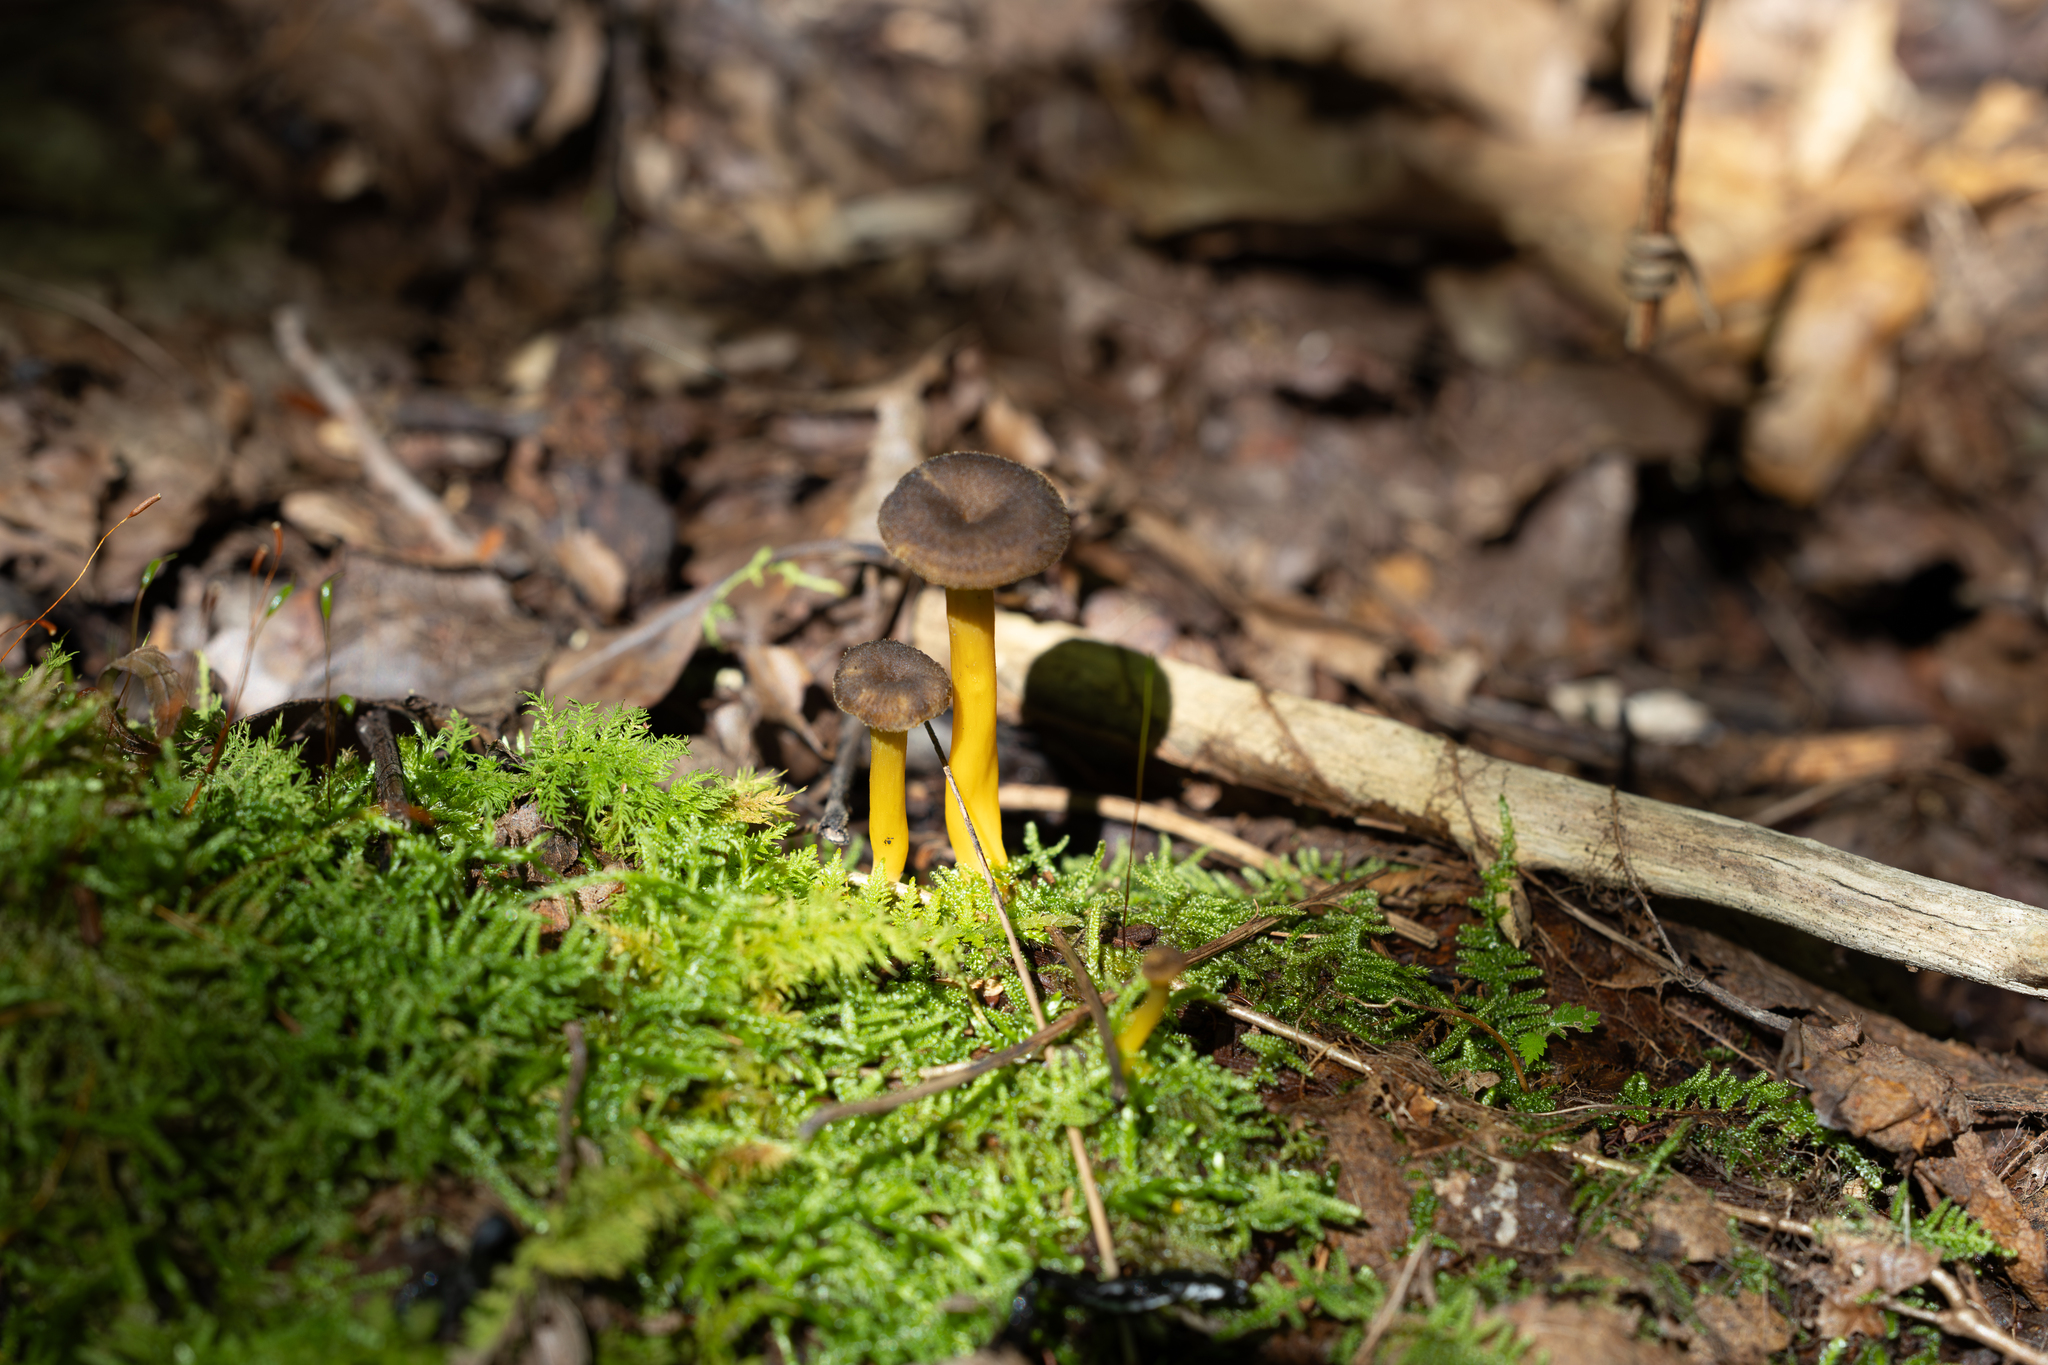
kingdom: Fungi
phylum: Basidiomycota
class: Agaricomycetes
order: Cantharellales
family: Hydnaceae
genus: Craterellus
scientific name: Craterellus tubaeformis
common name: Yellowfoot
